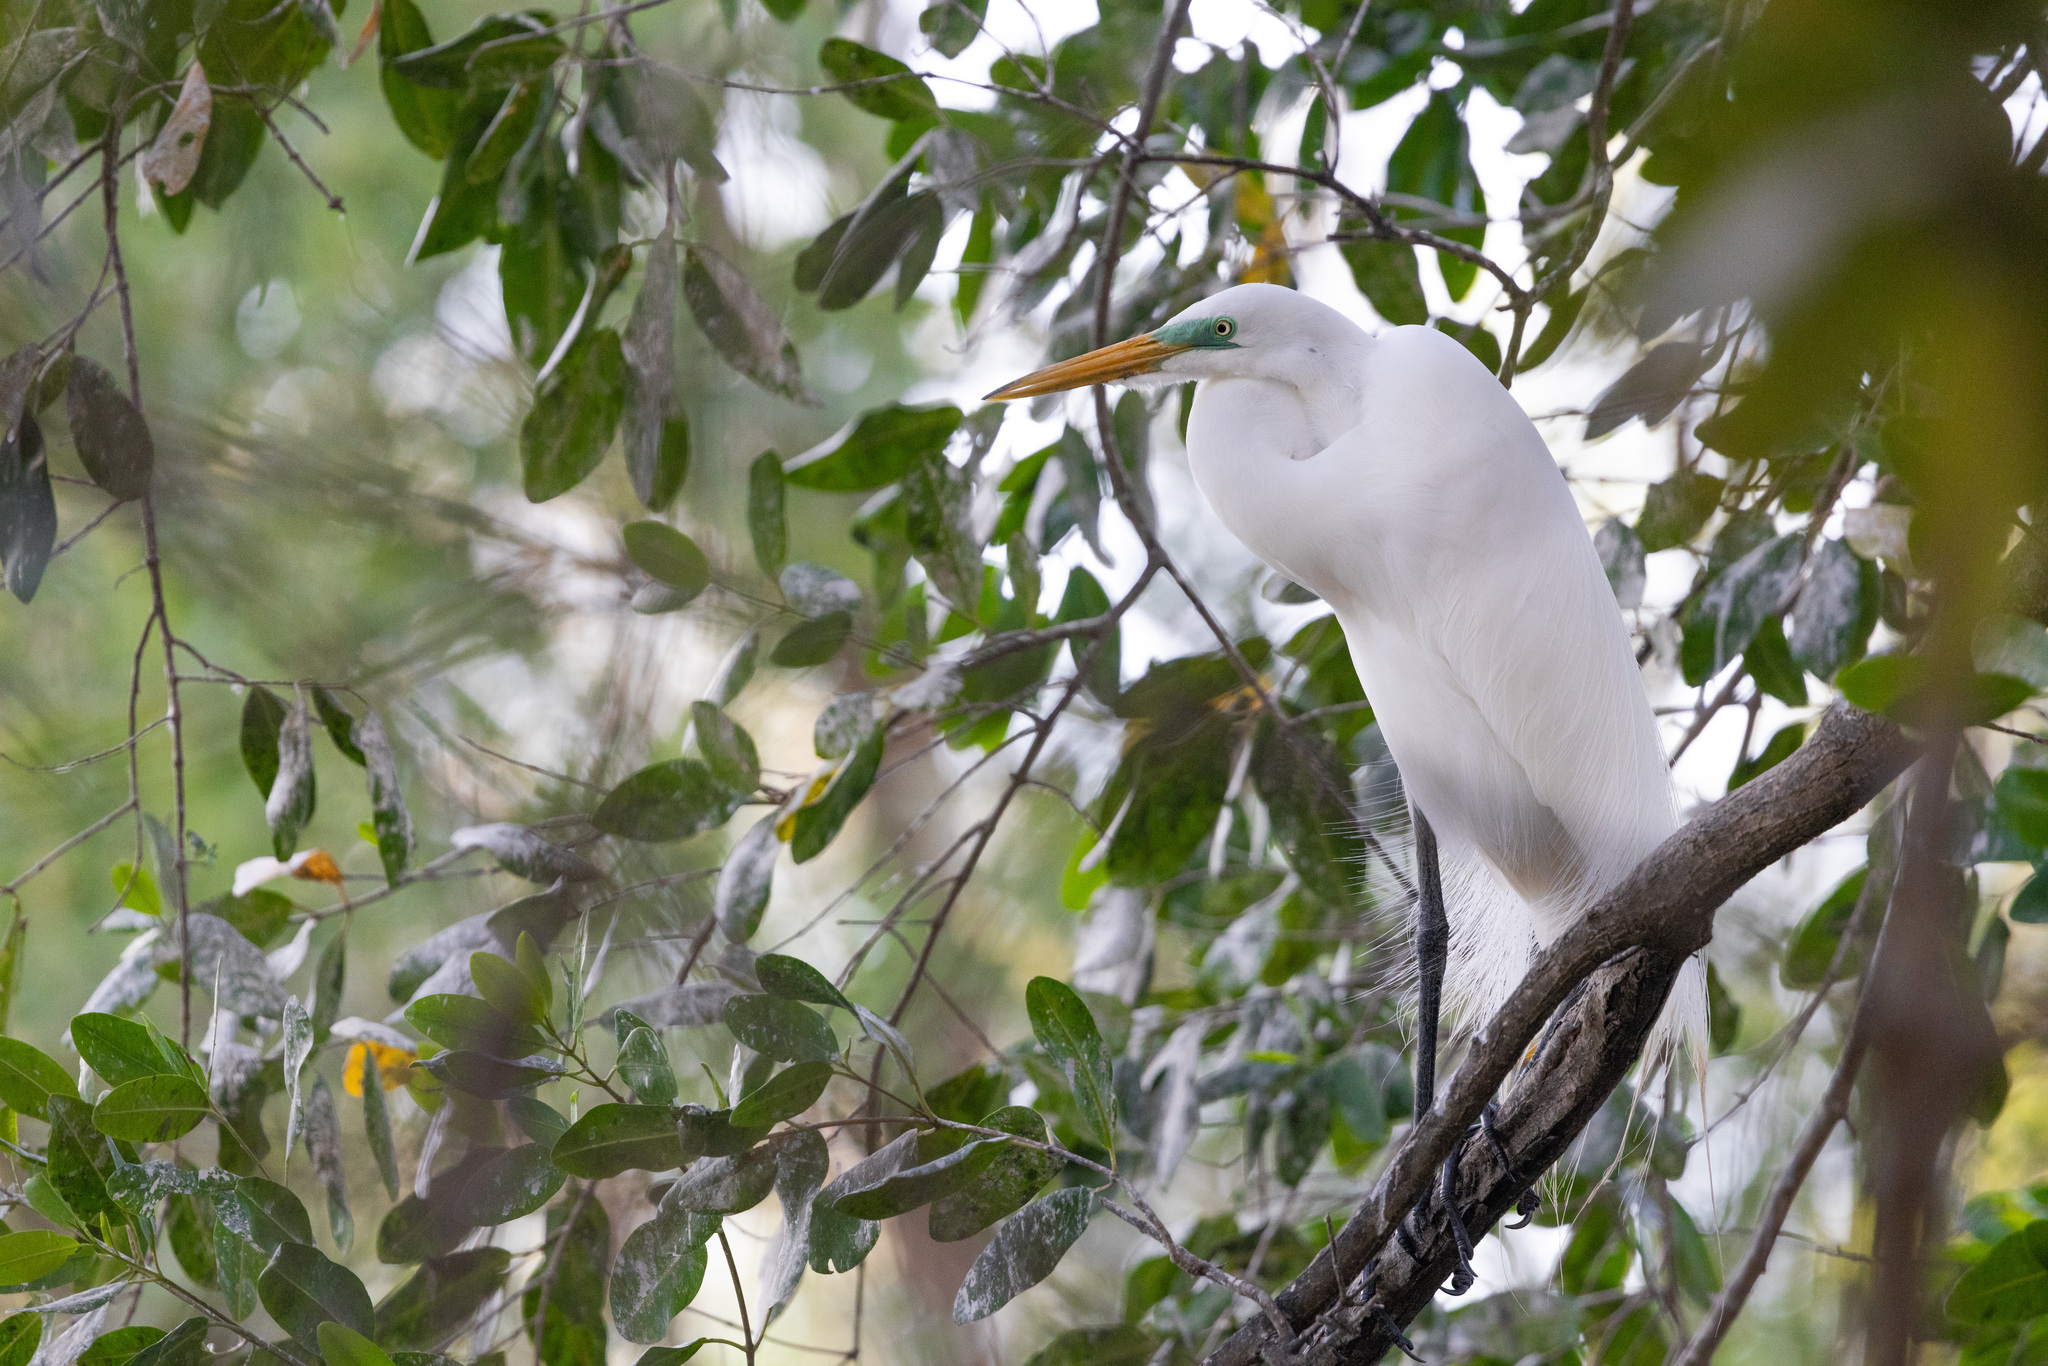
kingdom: Animalia
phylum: Chordata
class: Aves
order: Pelecaniformes
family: Ardeidae
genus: Ardea
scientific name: Ardea alba
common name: Great egret
